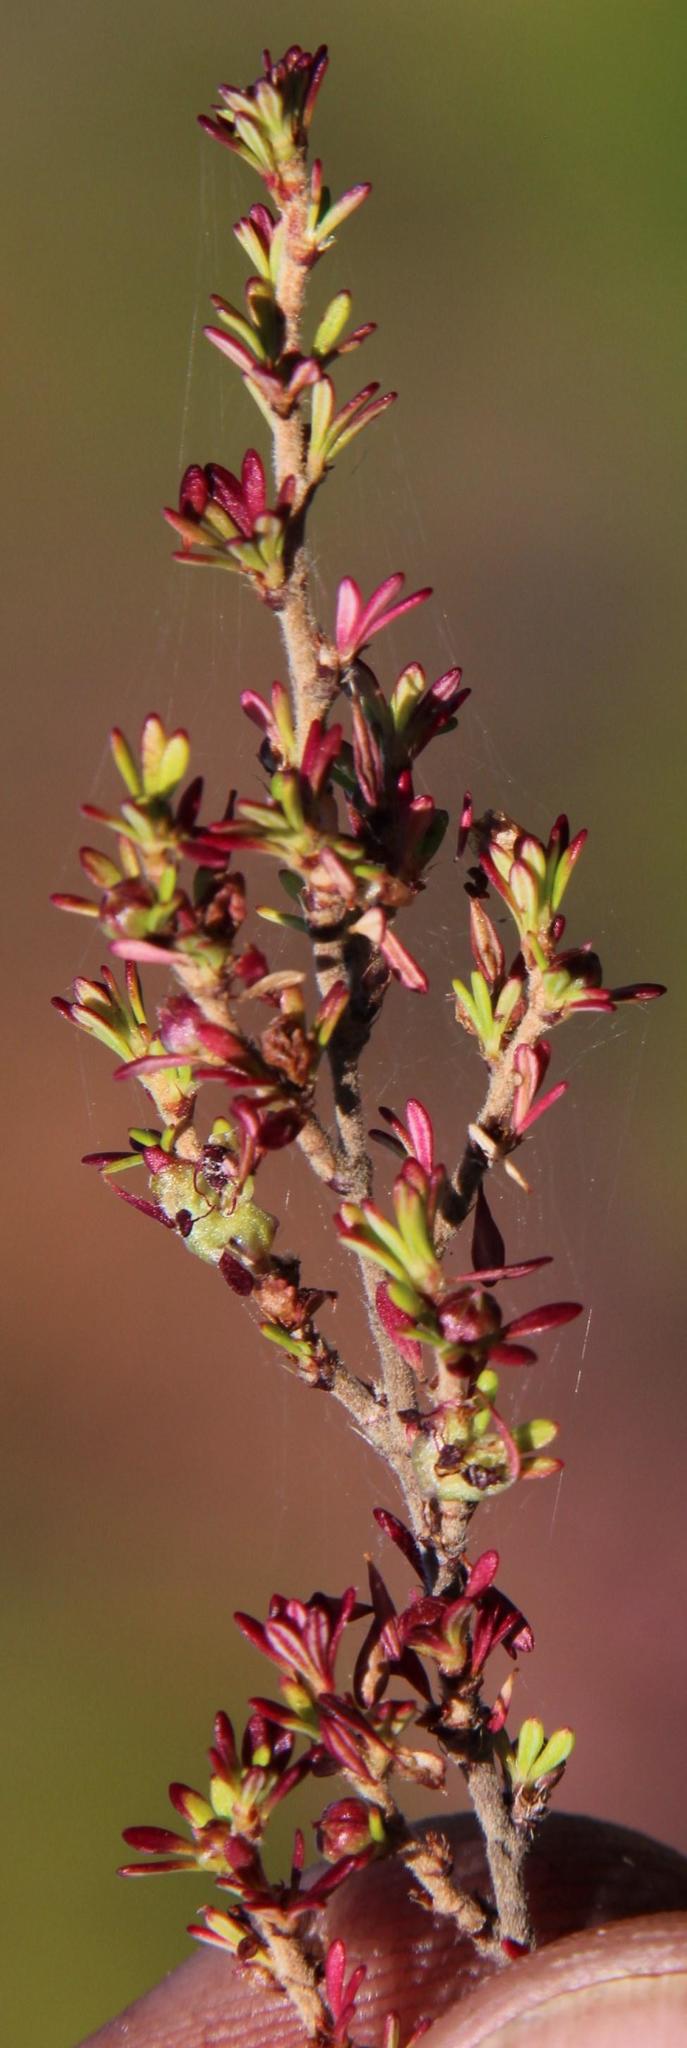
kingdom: Plantae
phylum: Tracheophyta
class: Magnoliopsida
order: Rosales
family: Rosaceae
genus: Cliffortia
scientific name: Cliffortia serpyllifolia
